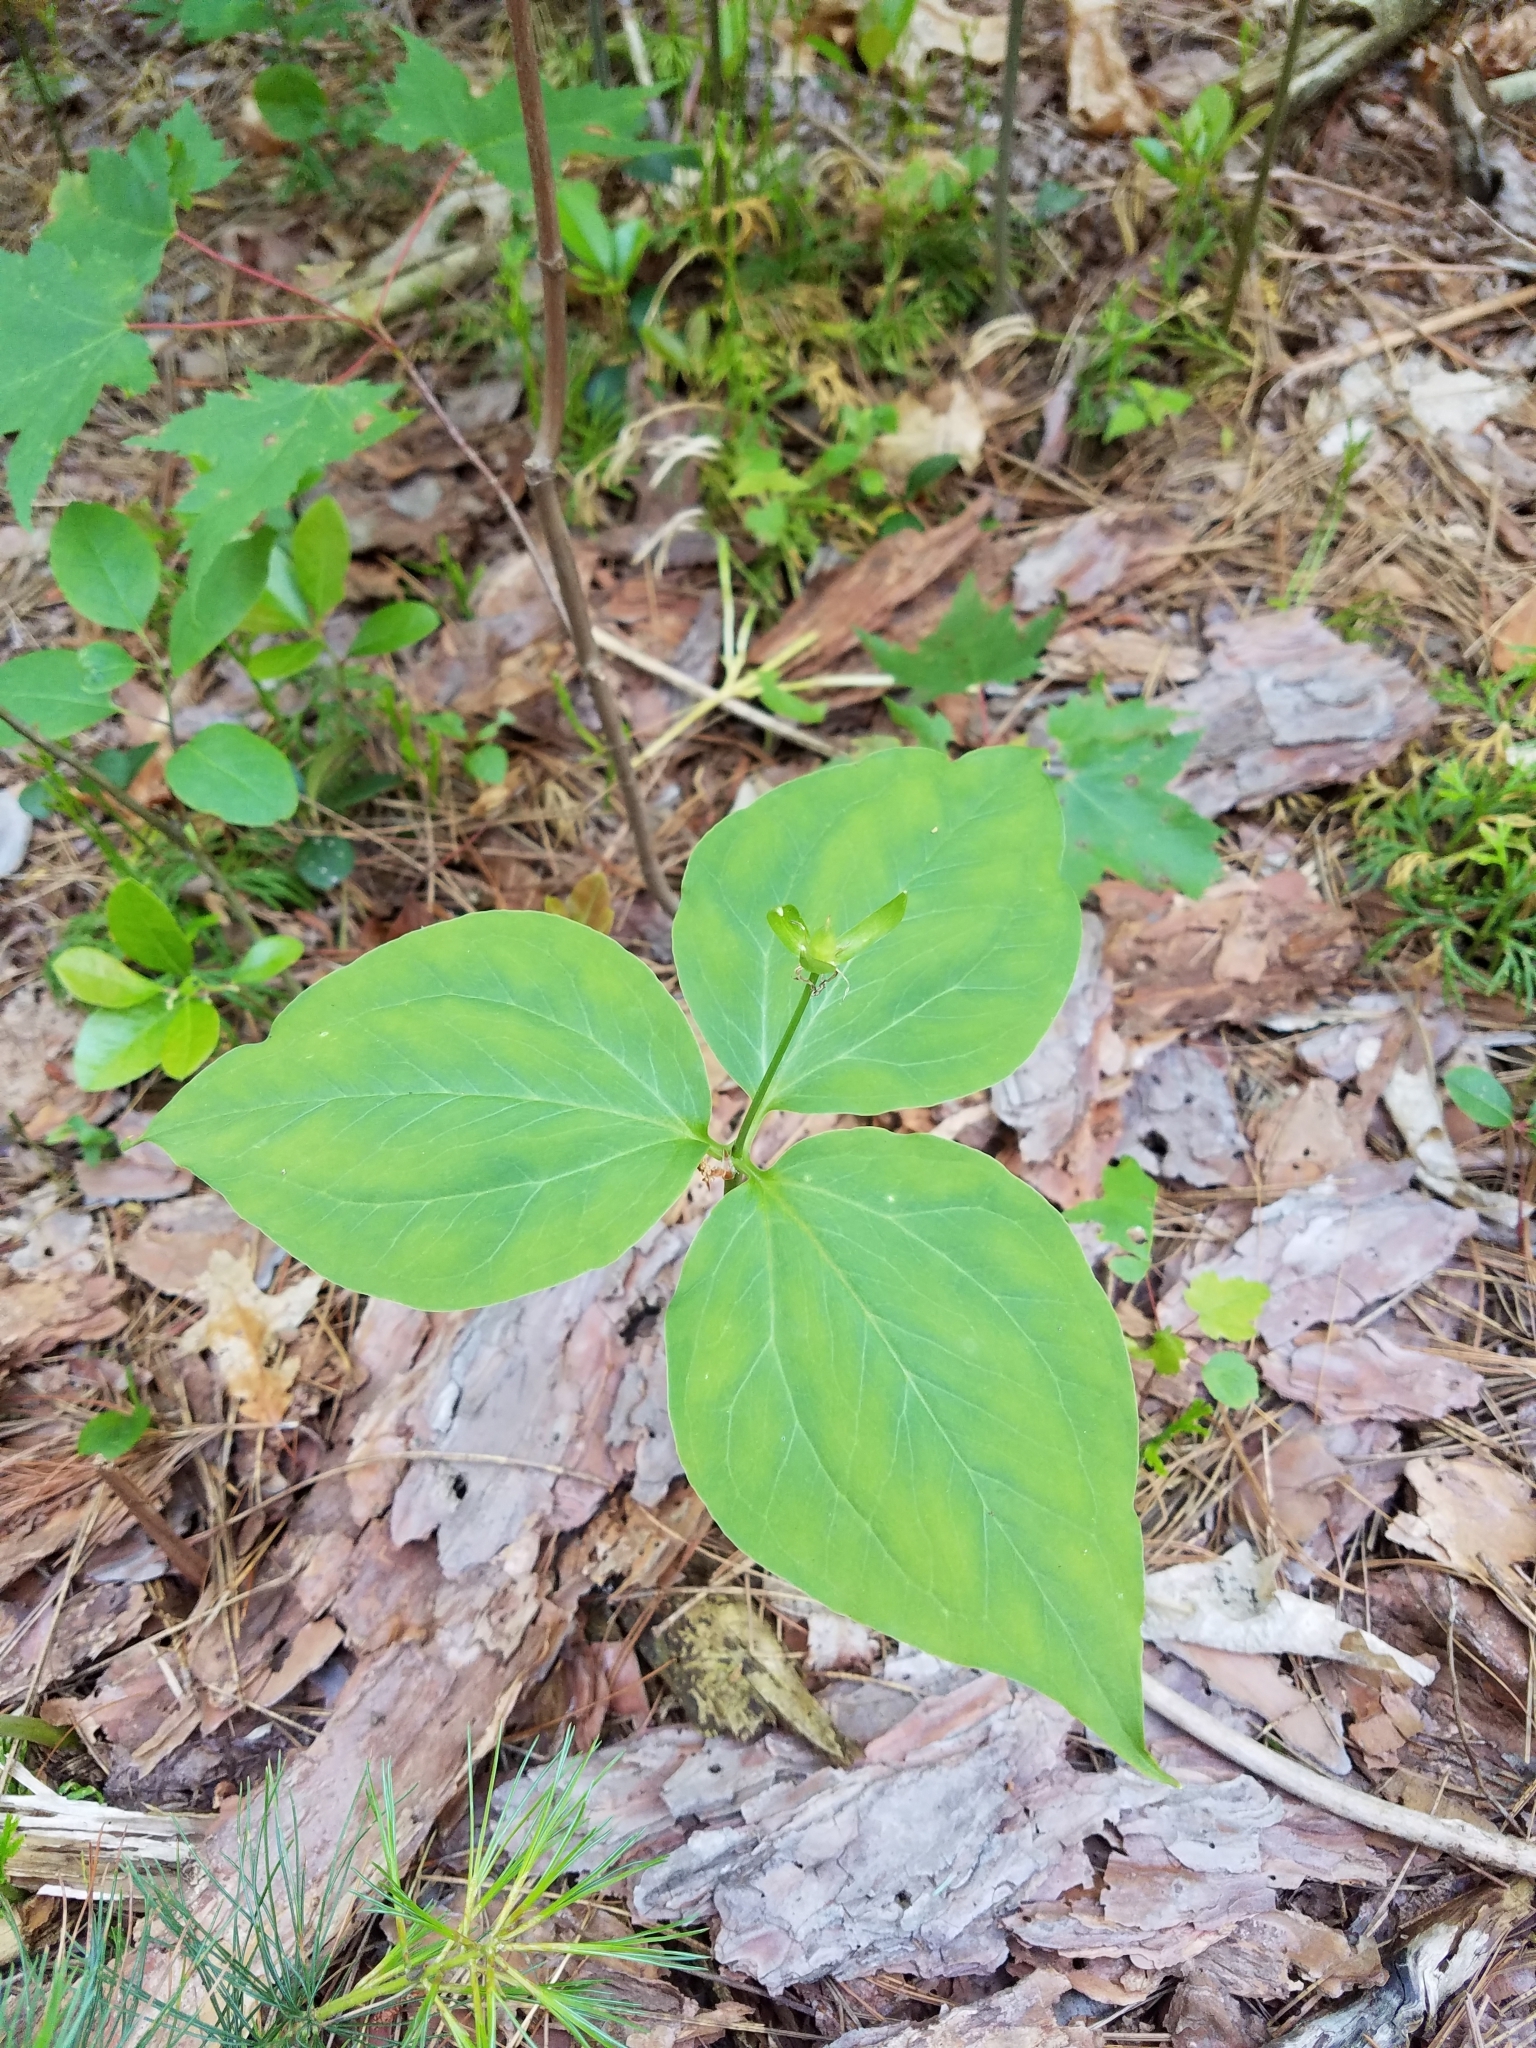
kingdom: Plantae
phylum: Tracheophyta
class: Liliopsida
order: Liliales
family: Melanthiaceae
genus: Trillium
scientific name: Trillium undulatum
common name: Paint trillium
